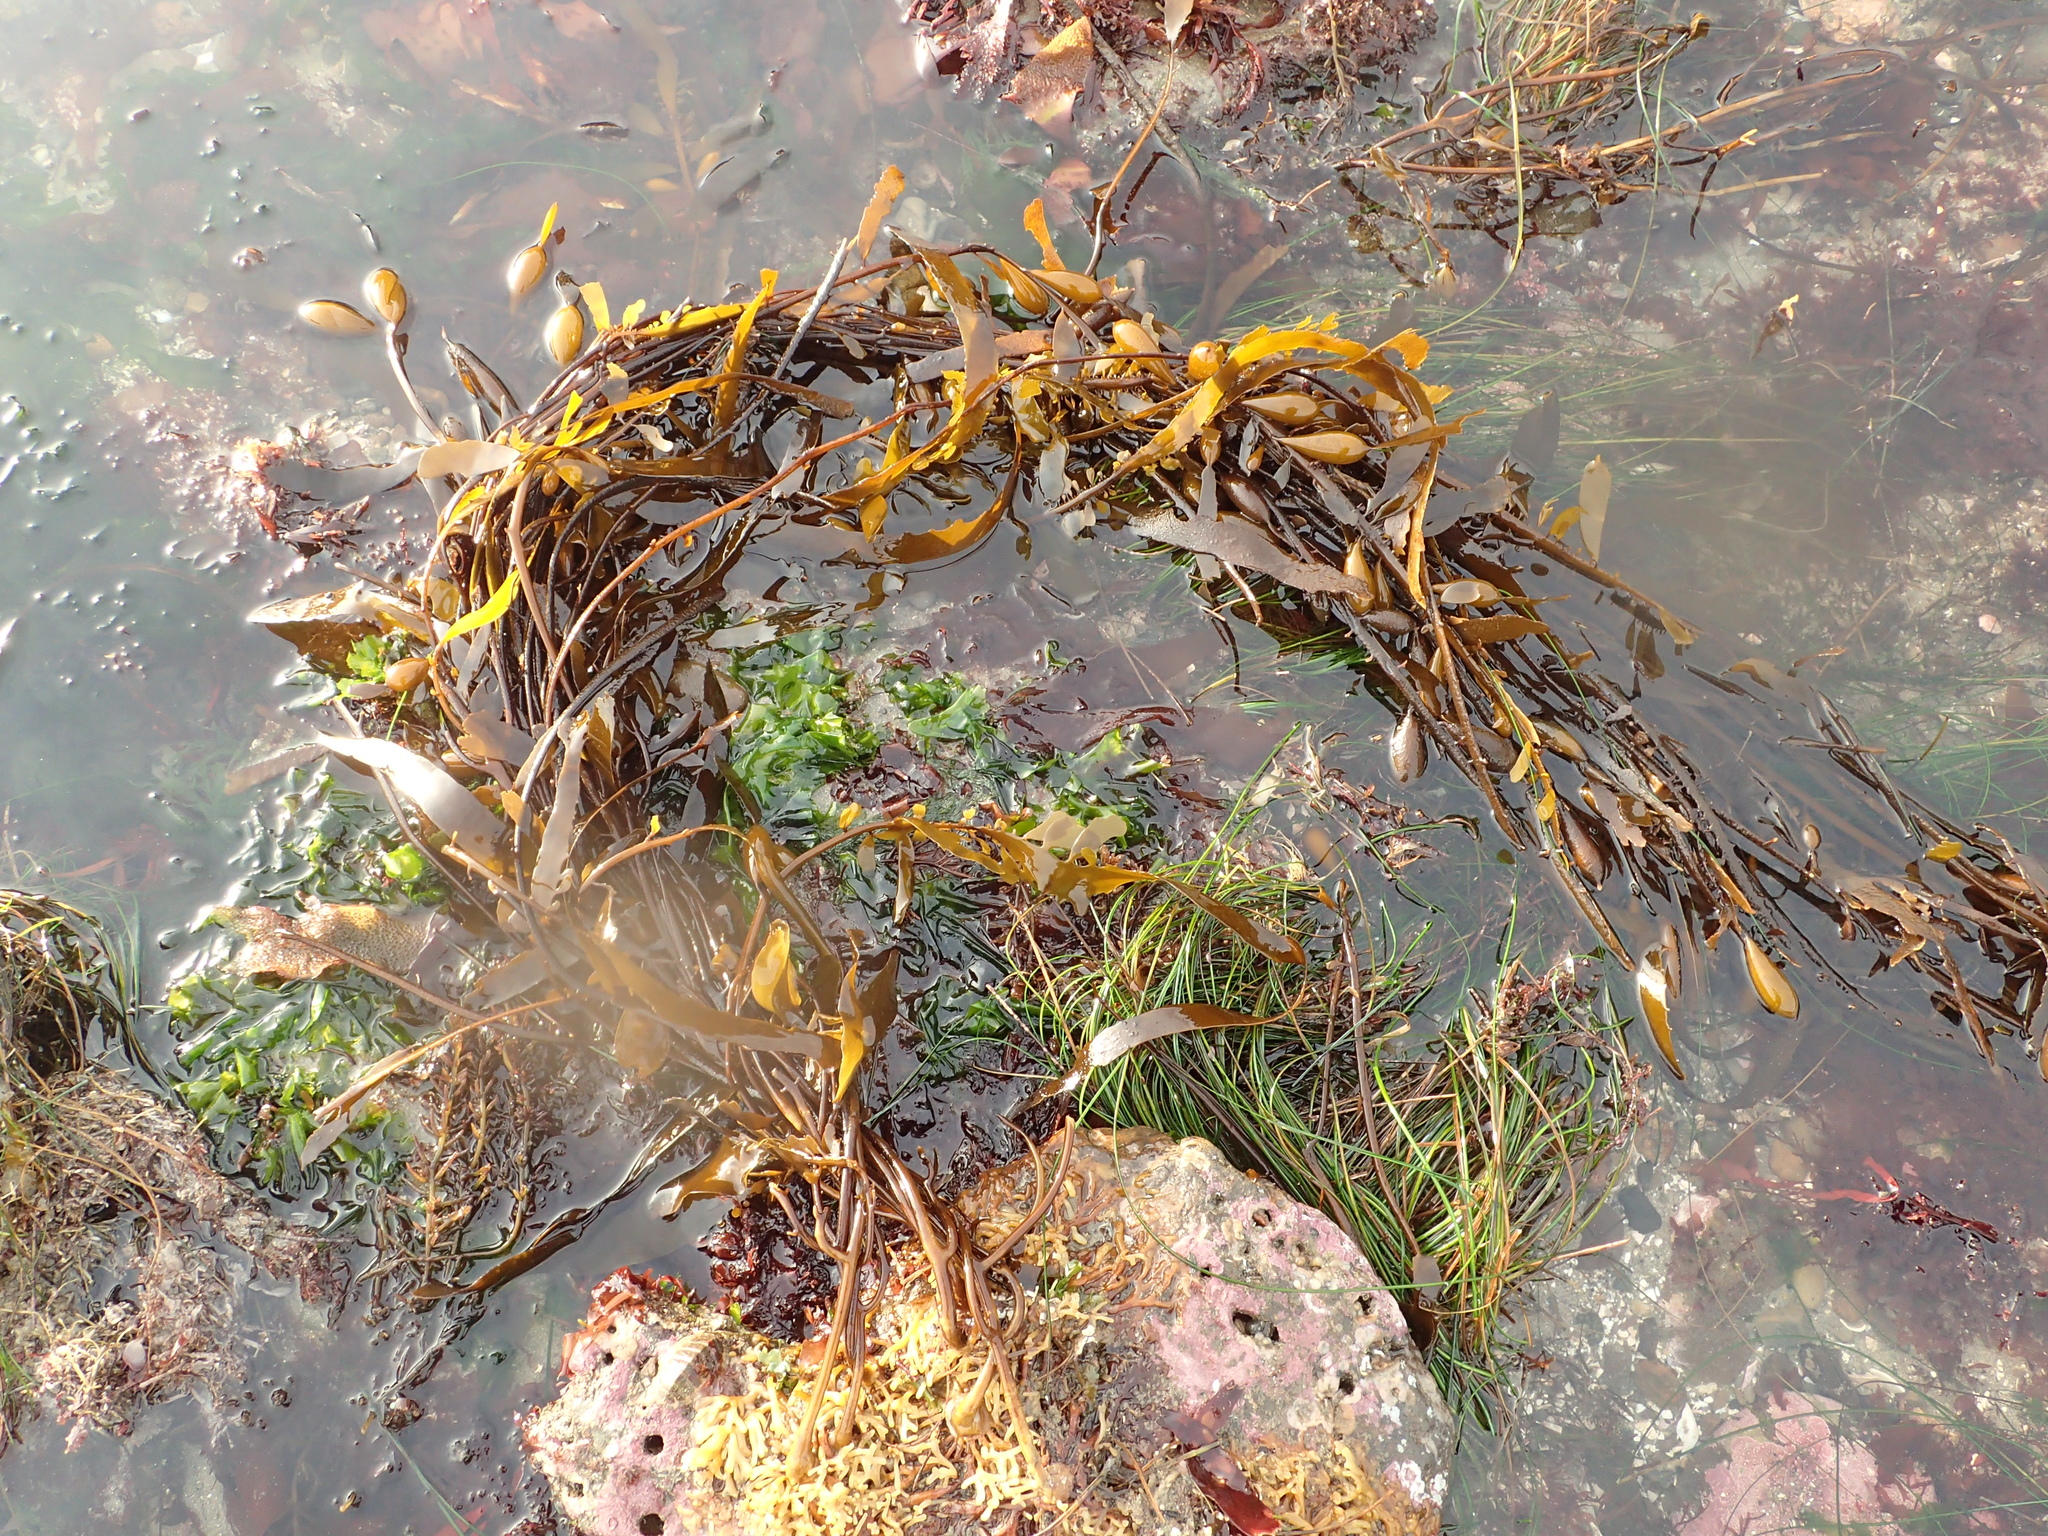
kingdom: Chromista
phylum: Ochrophyta
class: Phaeophyceae
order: Laminariales
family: Laminariaceae
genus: Macrocystis
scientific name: Macrocystis pyrifera
